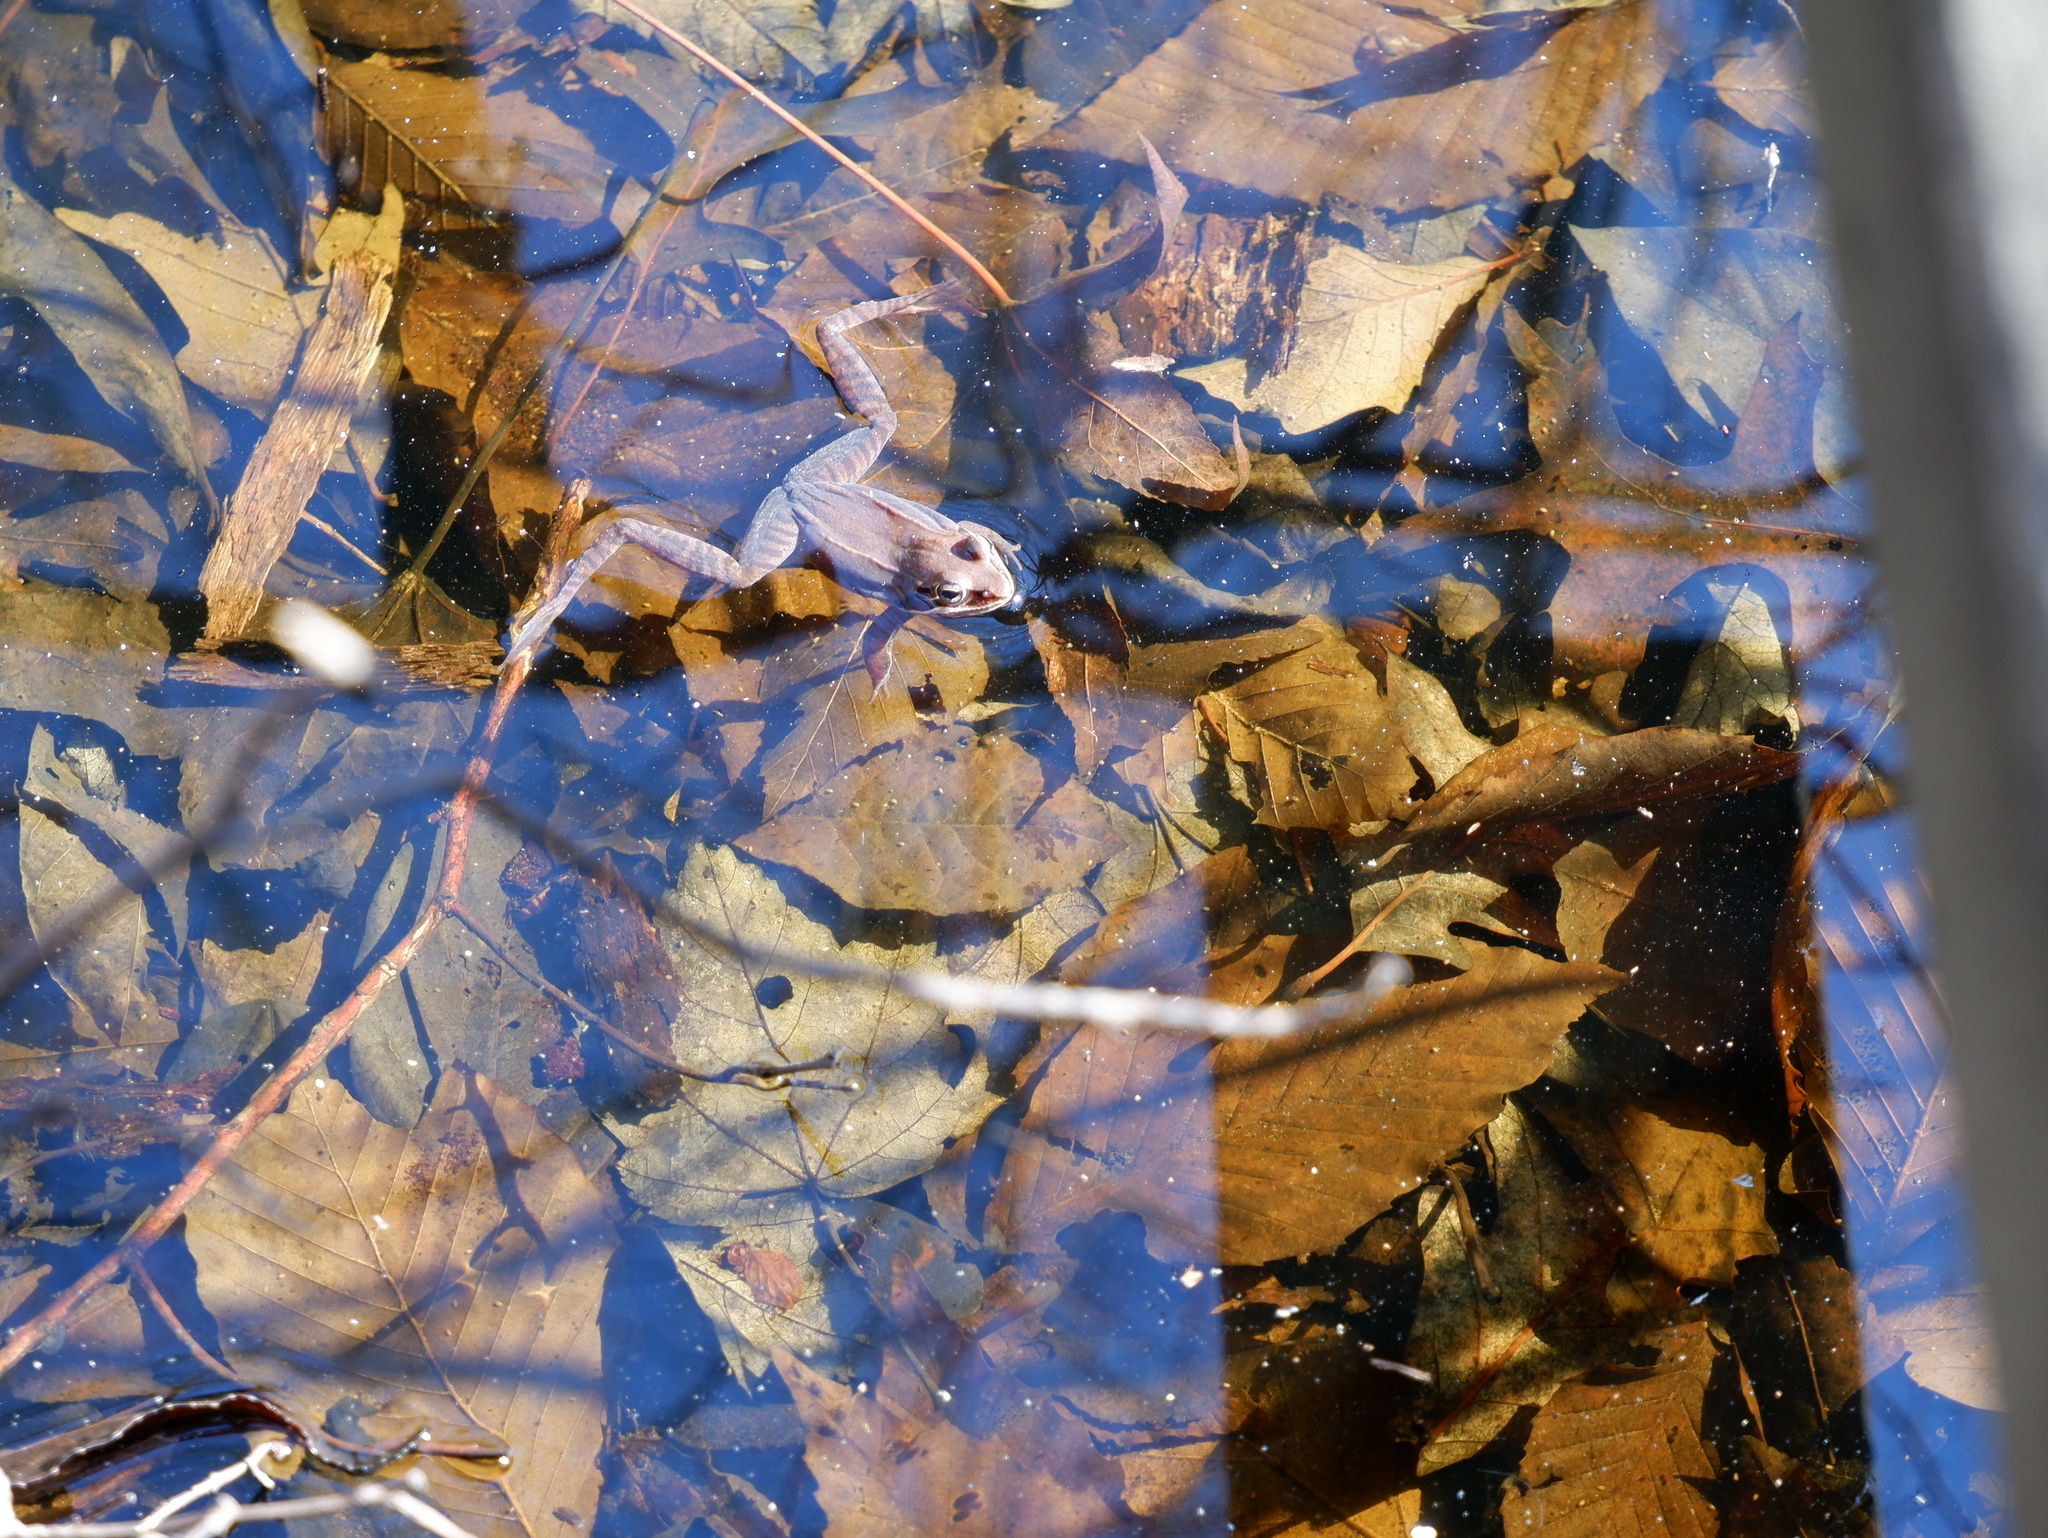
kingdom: Animalia
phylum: Chordata
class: Amphibia
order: Anura
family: Ranidae
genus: Lithobates
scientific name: Lithobates sylvaticus
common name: Wood frog
